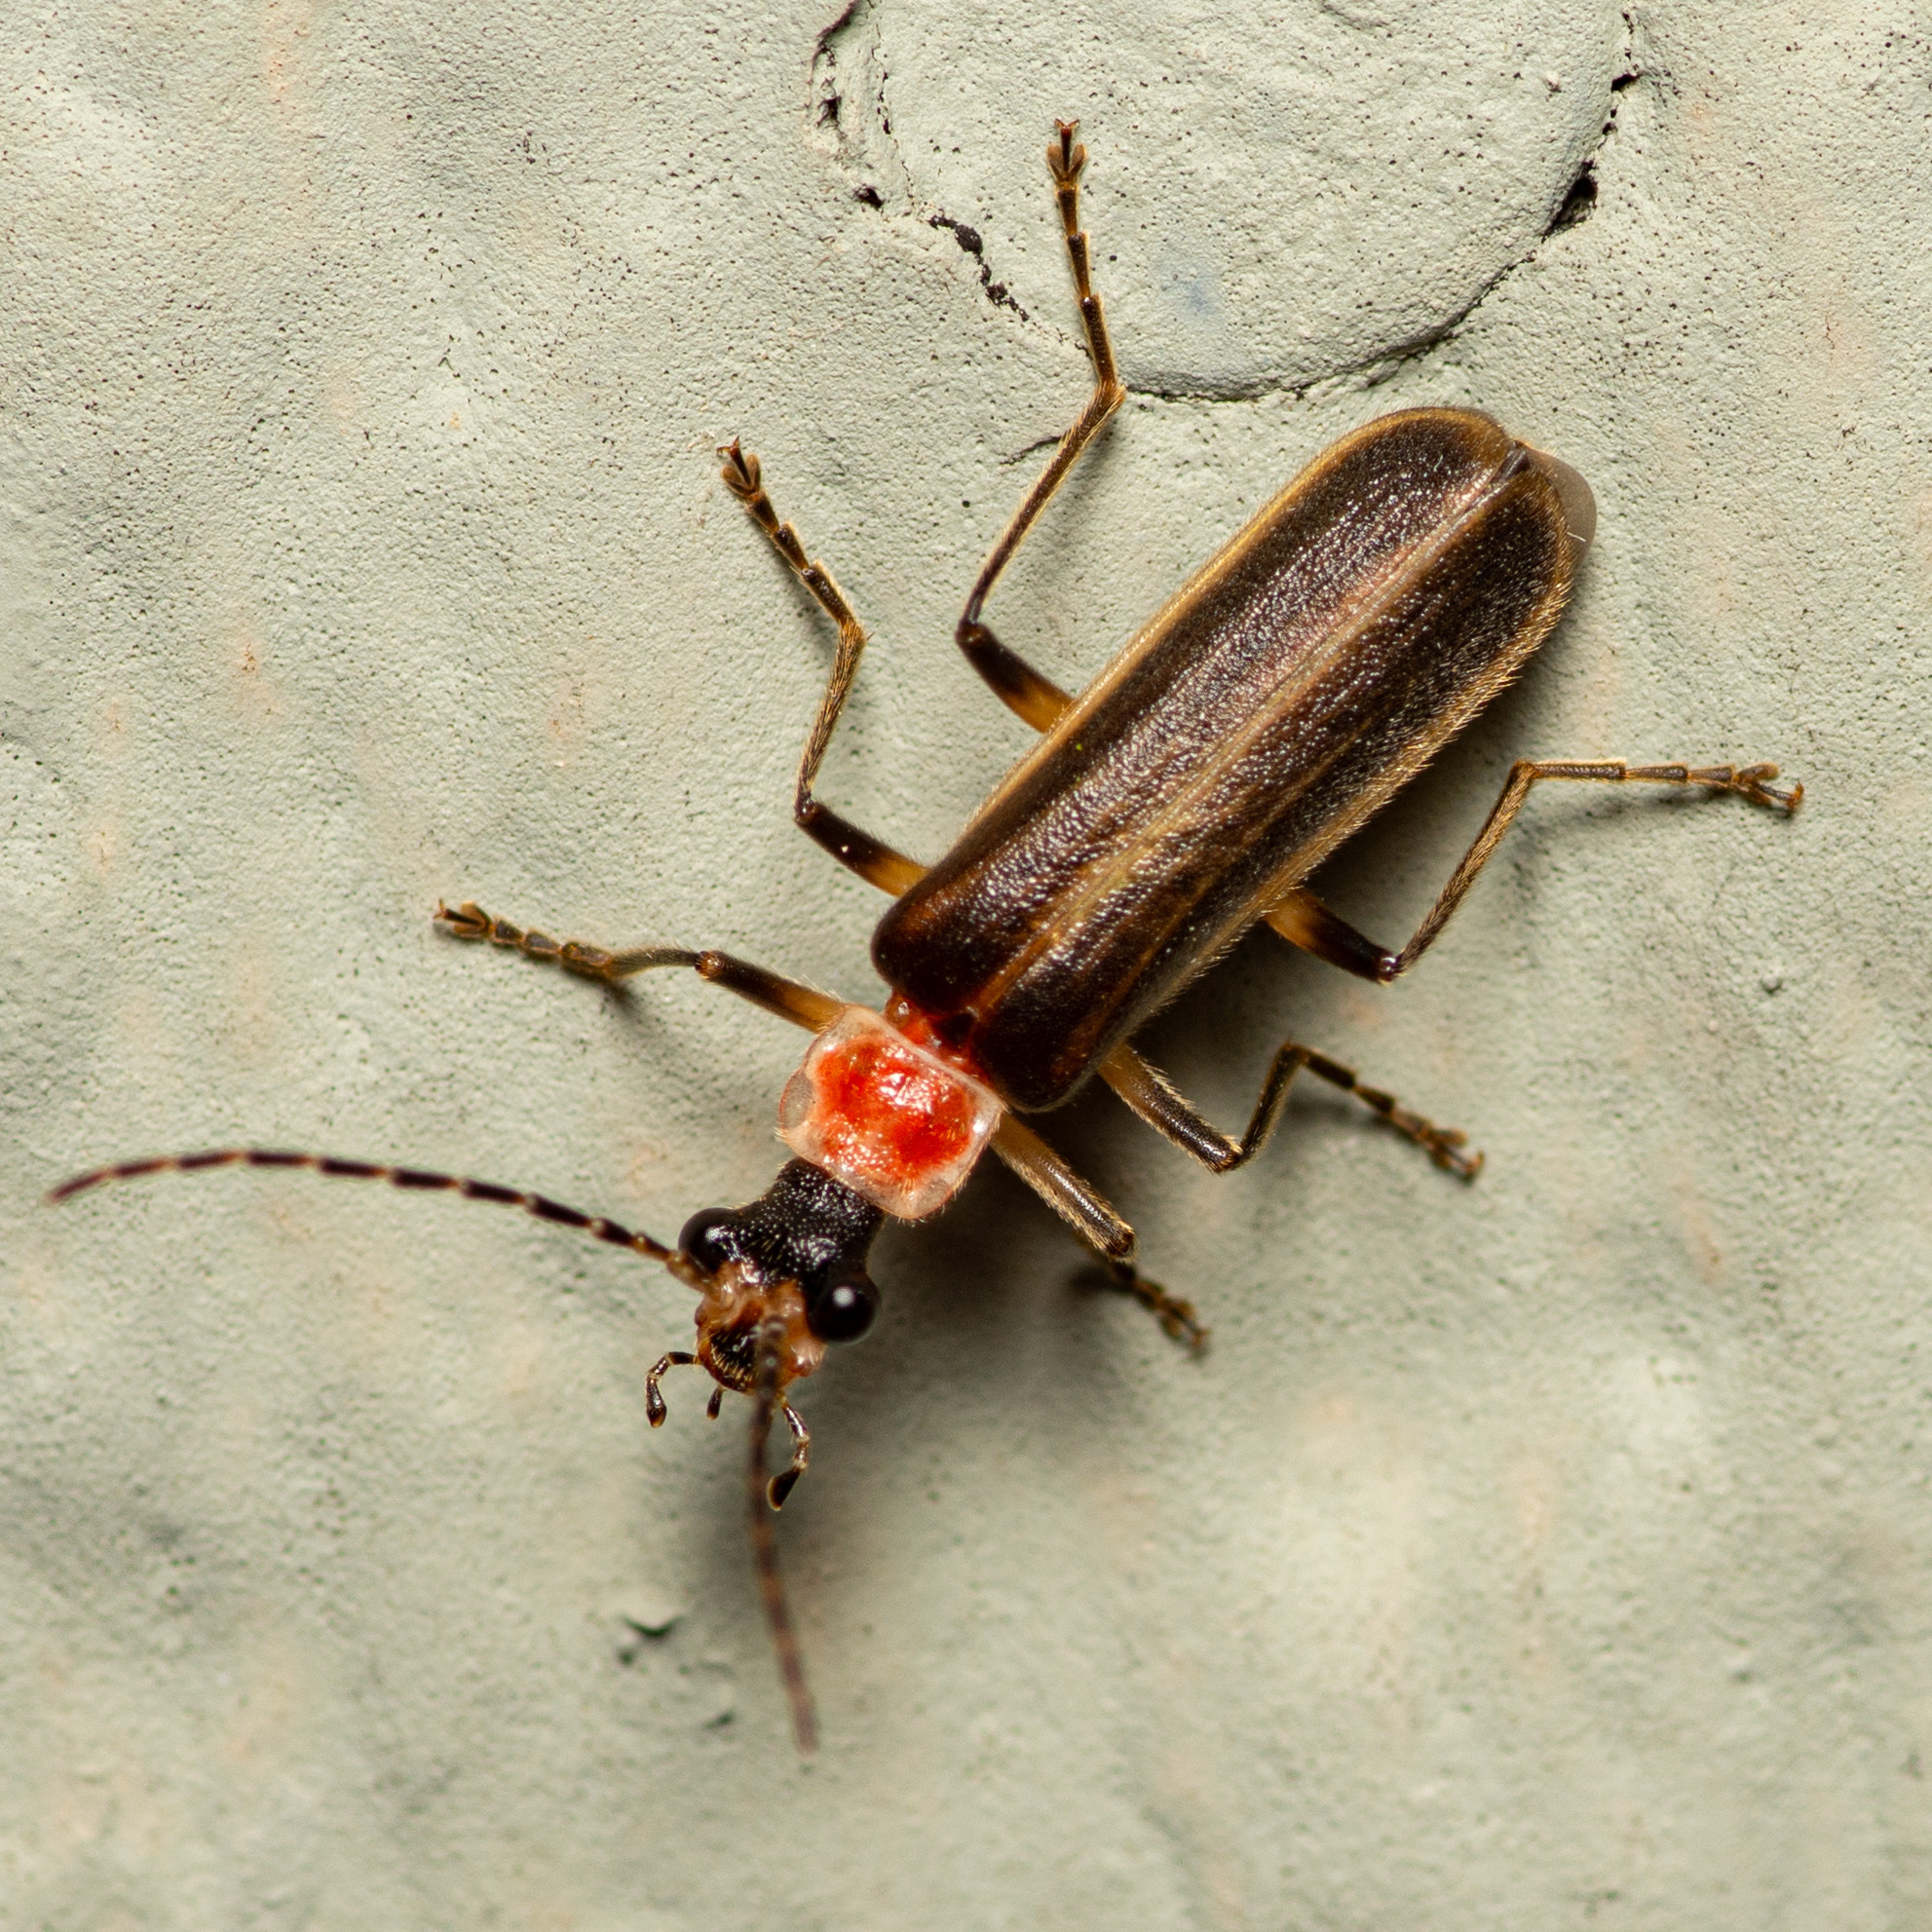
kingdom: Animalia
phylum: Arthropoda
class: Insecta
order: Coleoptera
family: Cantharidae
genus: Podabrus
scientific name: Podabrus quadratus
